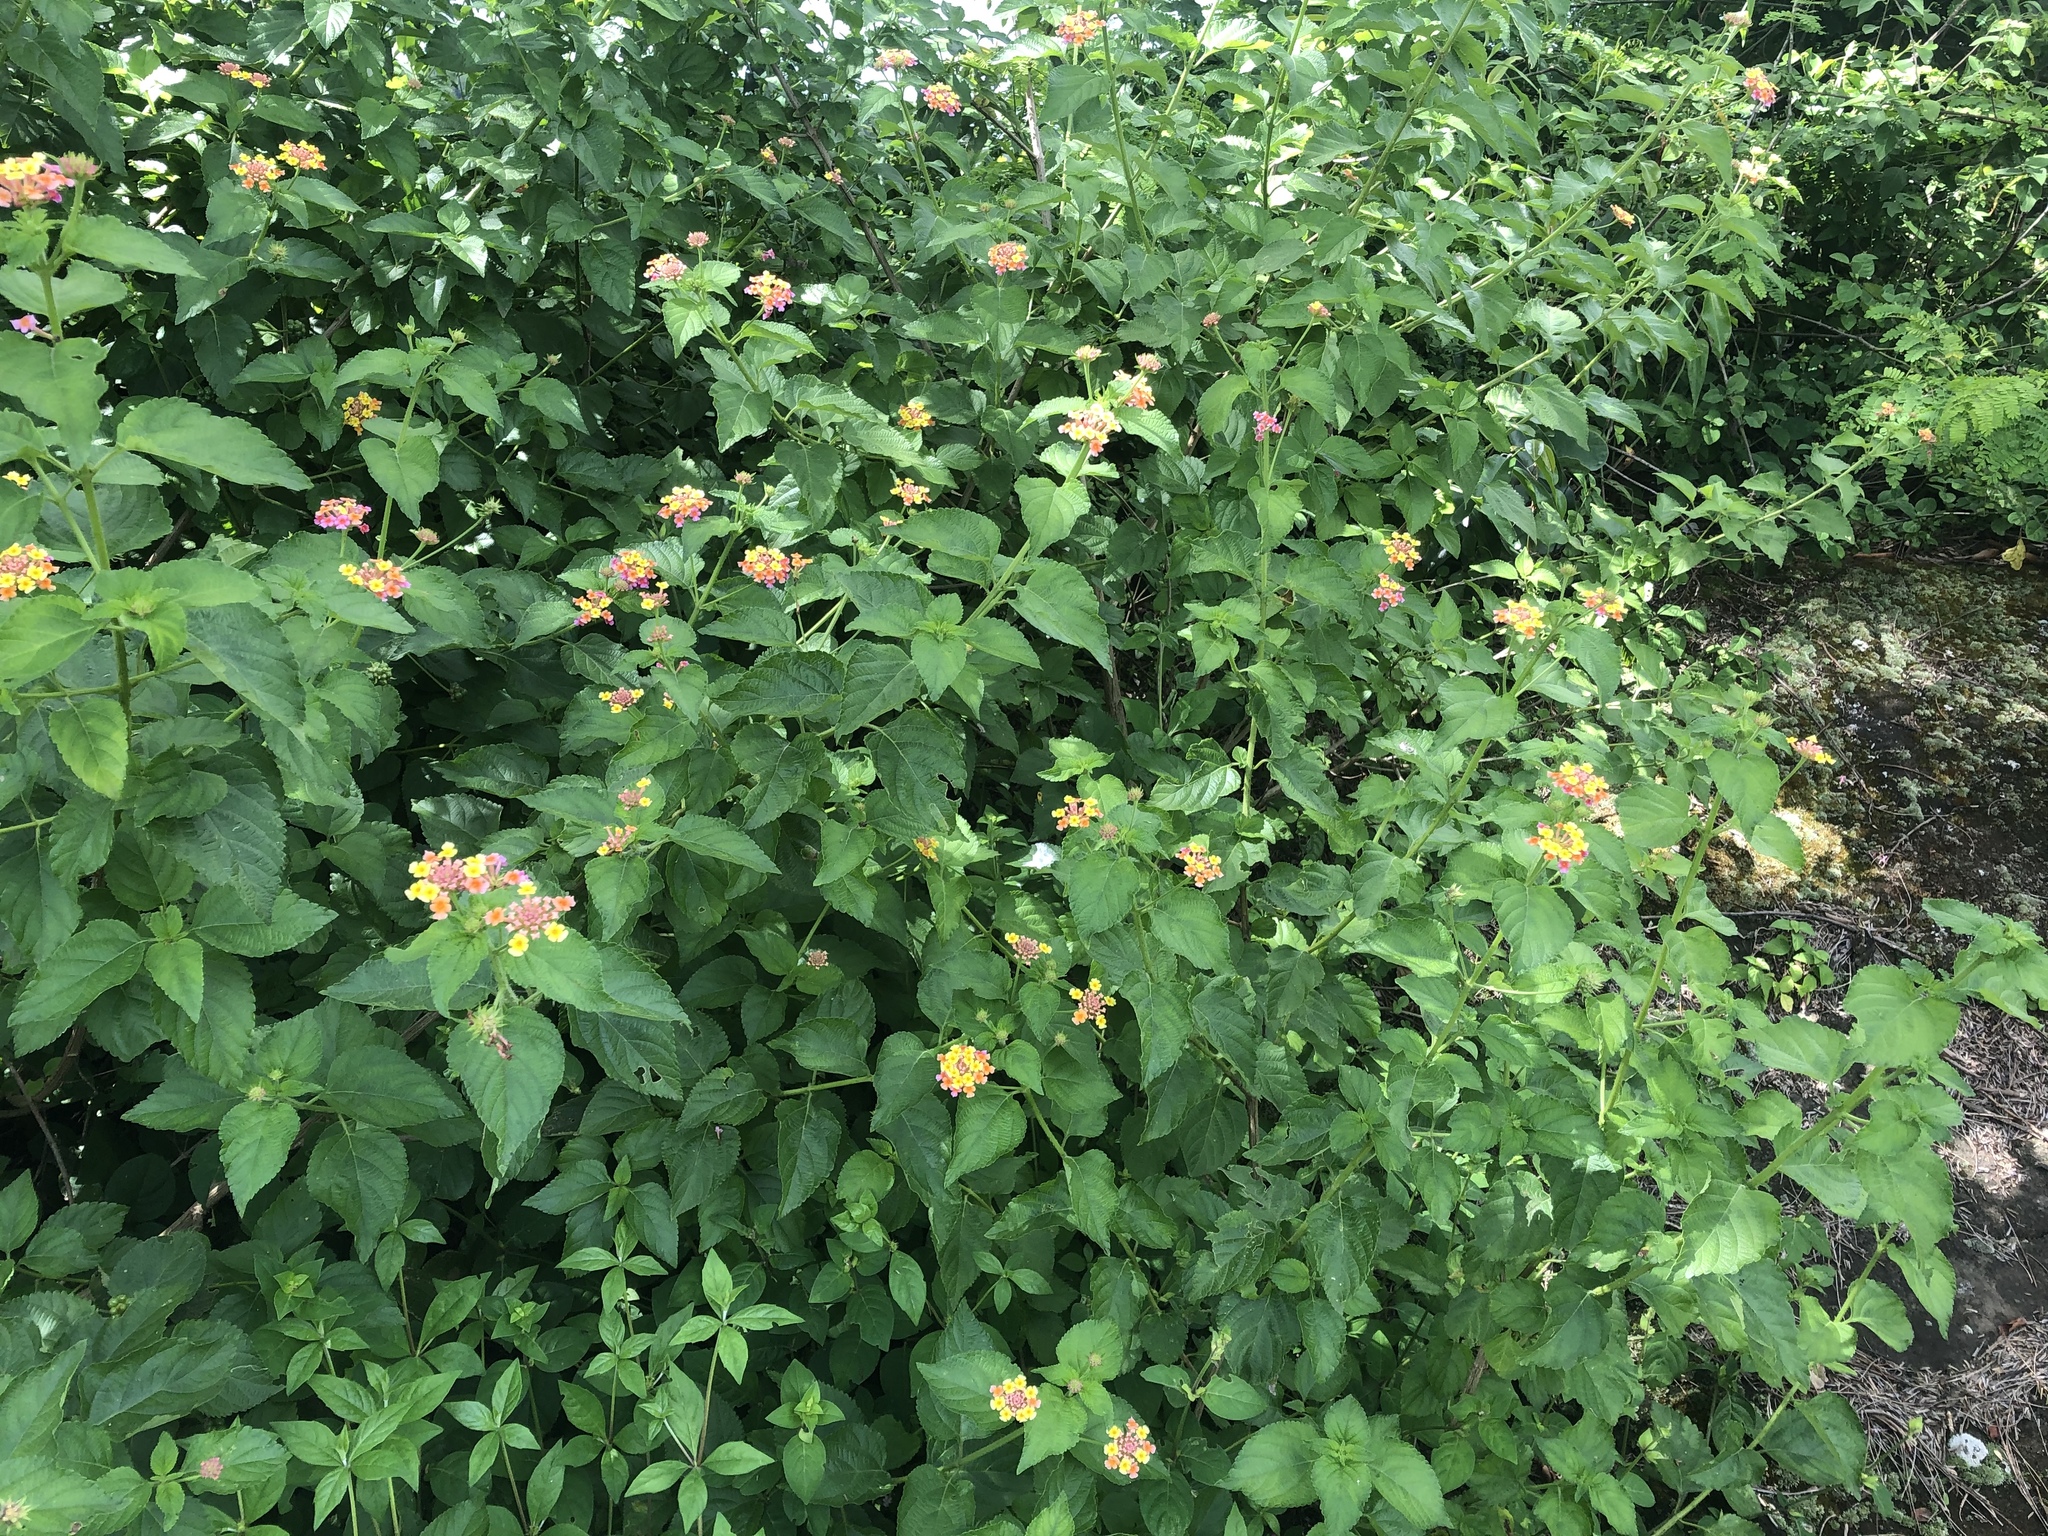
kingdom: Plantae
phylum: Tracheophyta
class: Magnoliopsida
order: Lamiales
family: Verbenaceae
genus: Lantana
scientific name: Lantana camara
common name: Lantana
